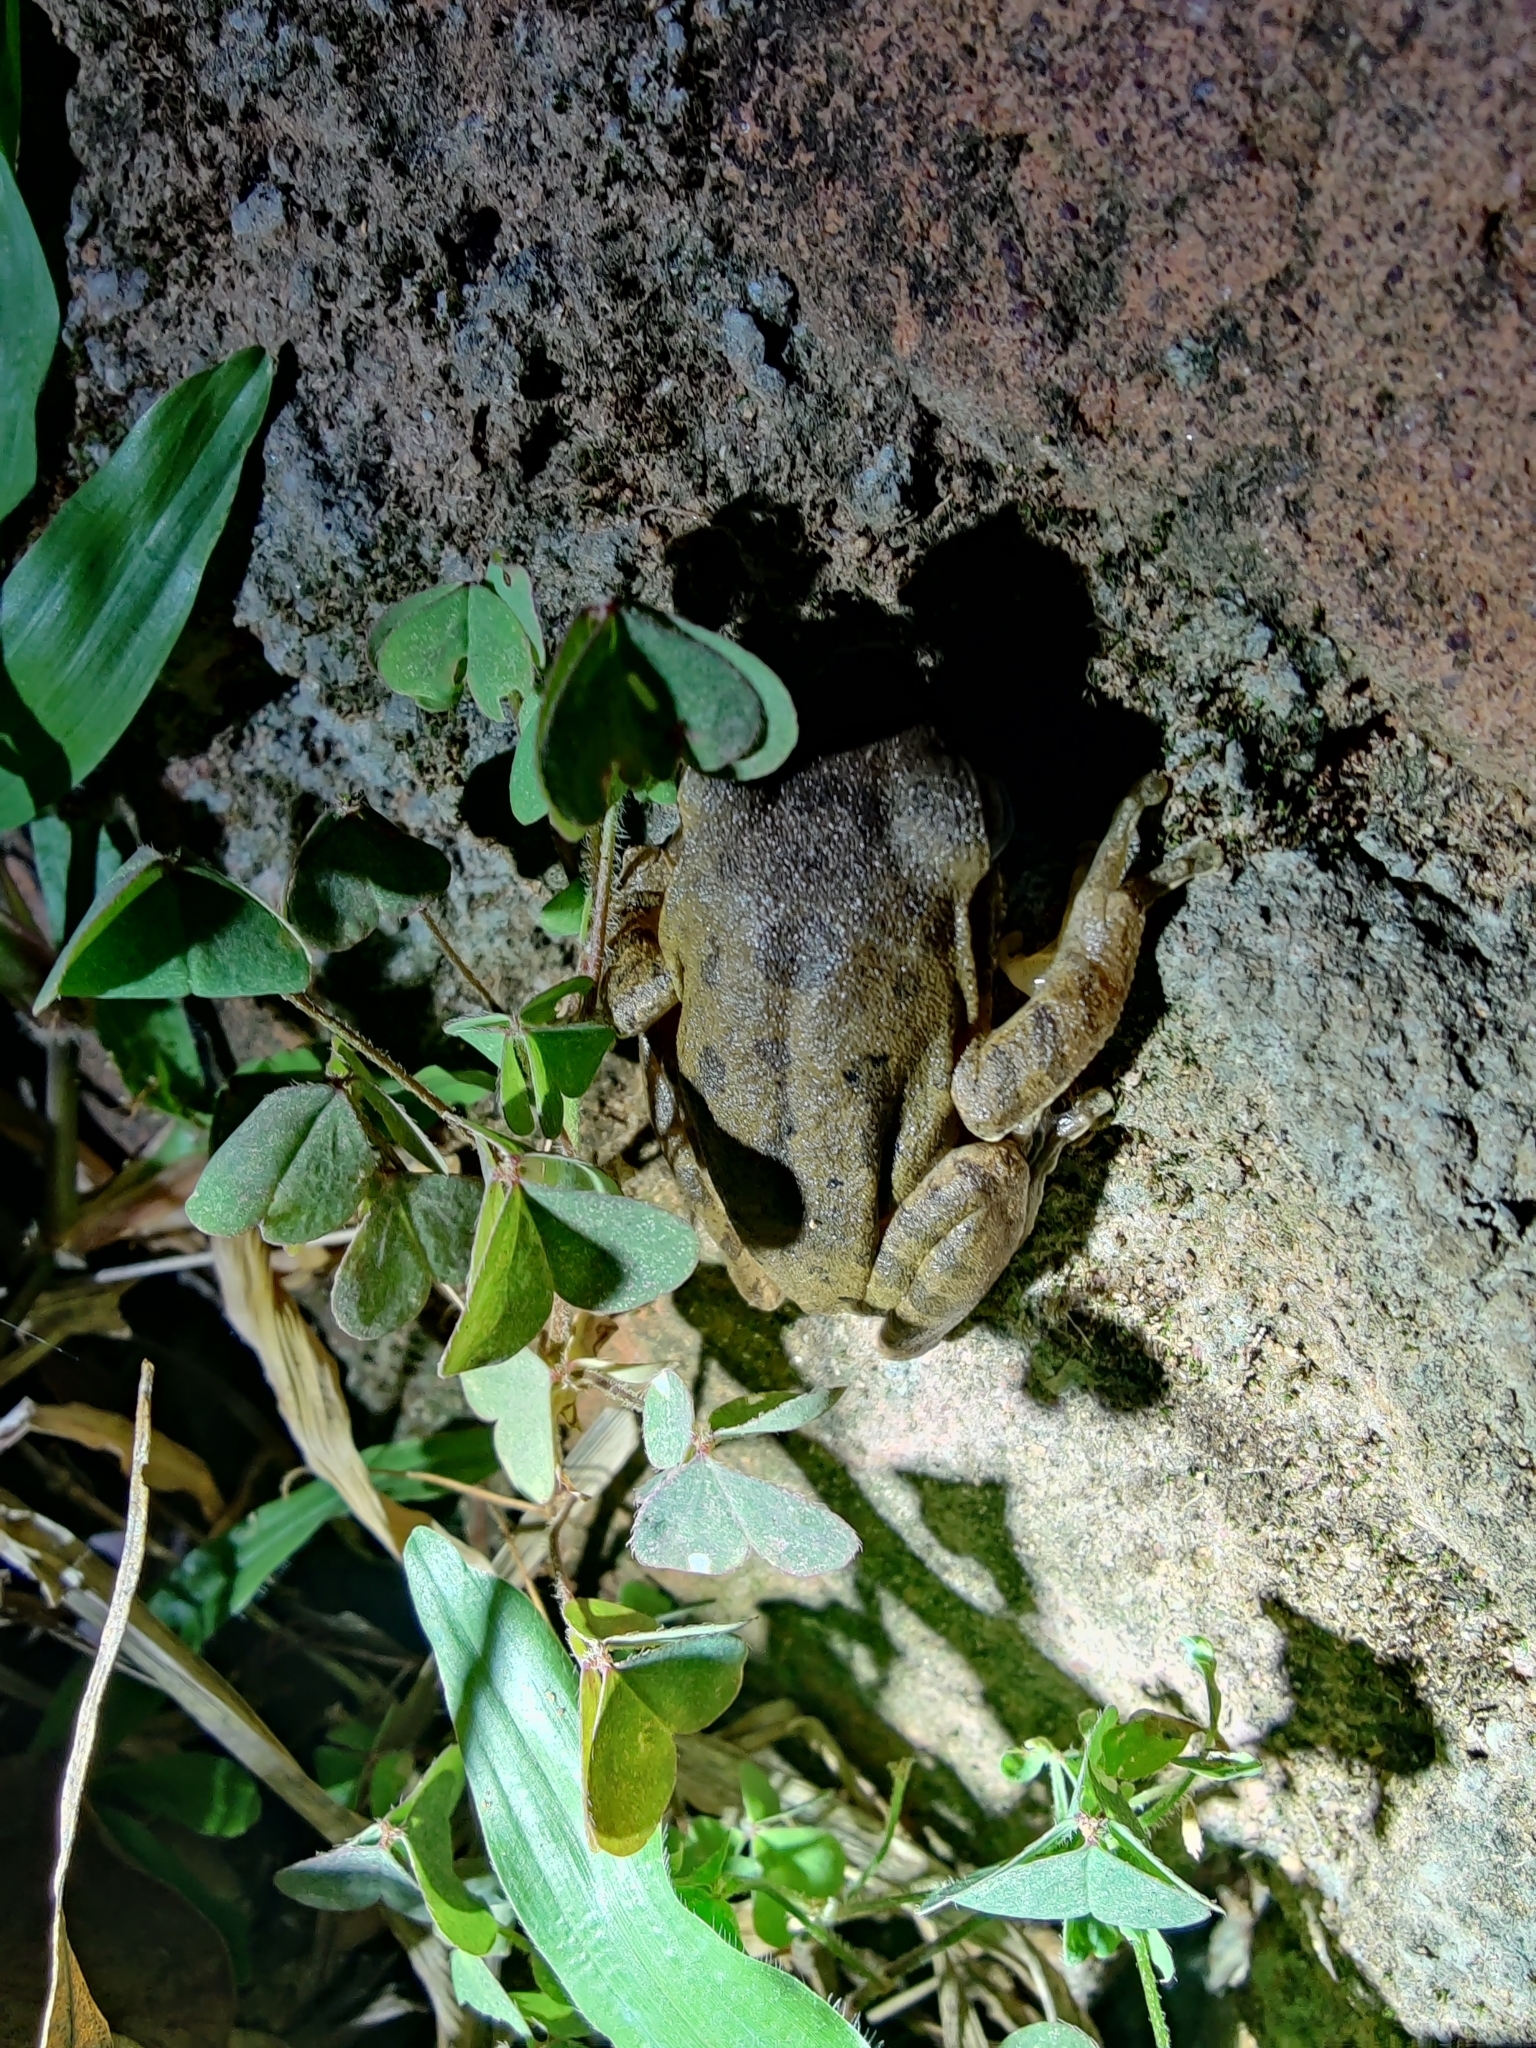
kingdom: Animalia
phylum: Chordata
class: Amphibia
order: Anura
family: Rhacophoridae
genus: Polypedates
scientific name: Polypedates maculatus
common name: Himalayan tree frog
